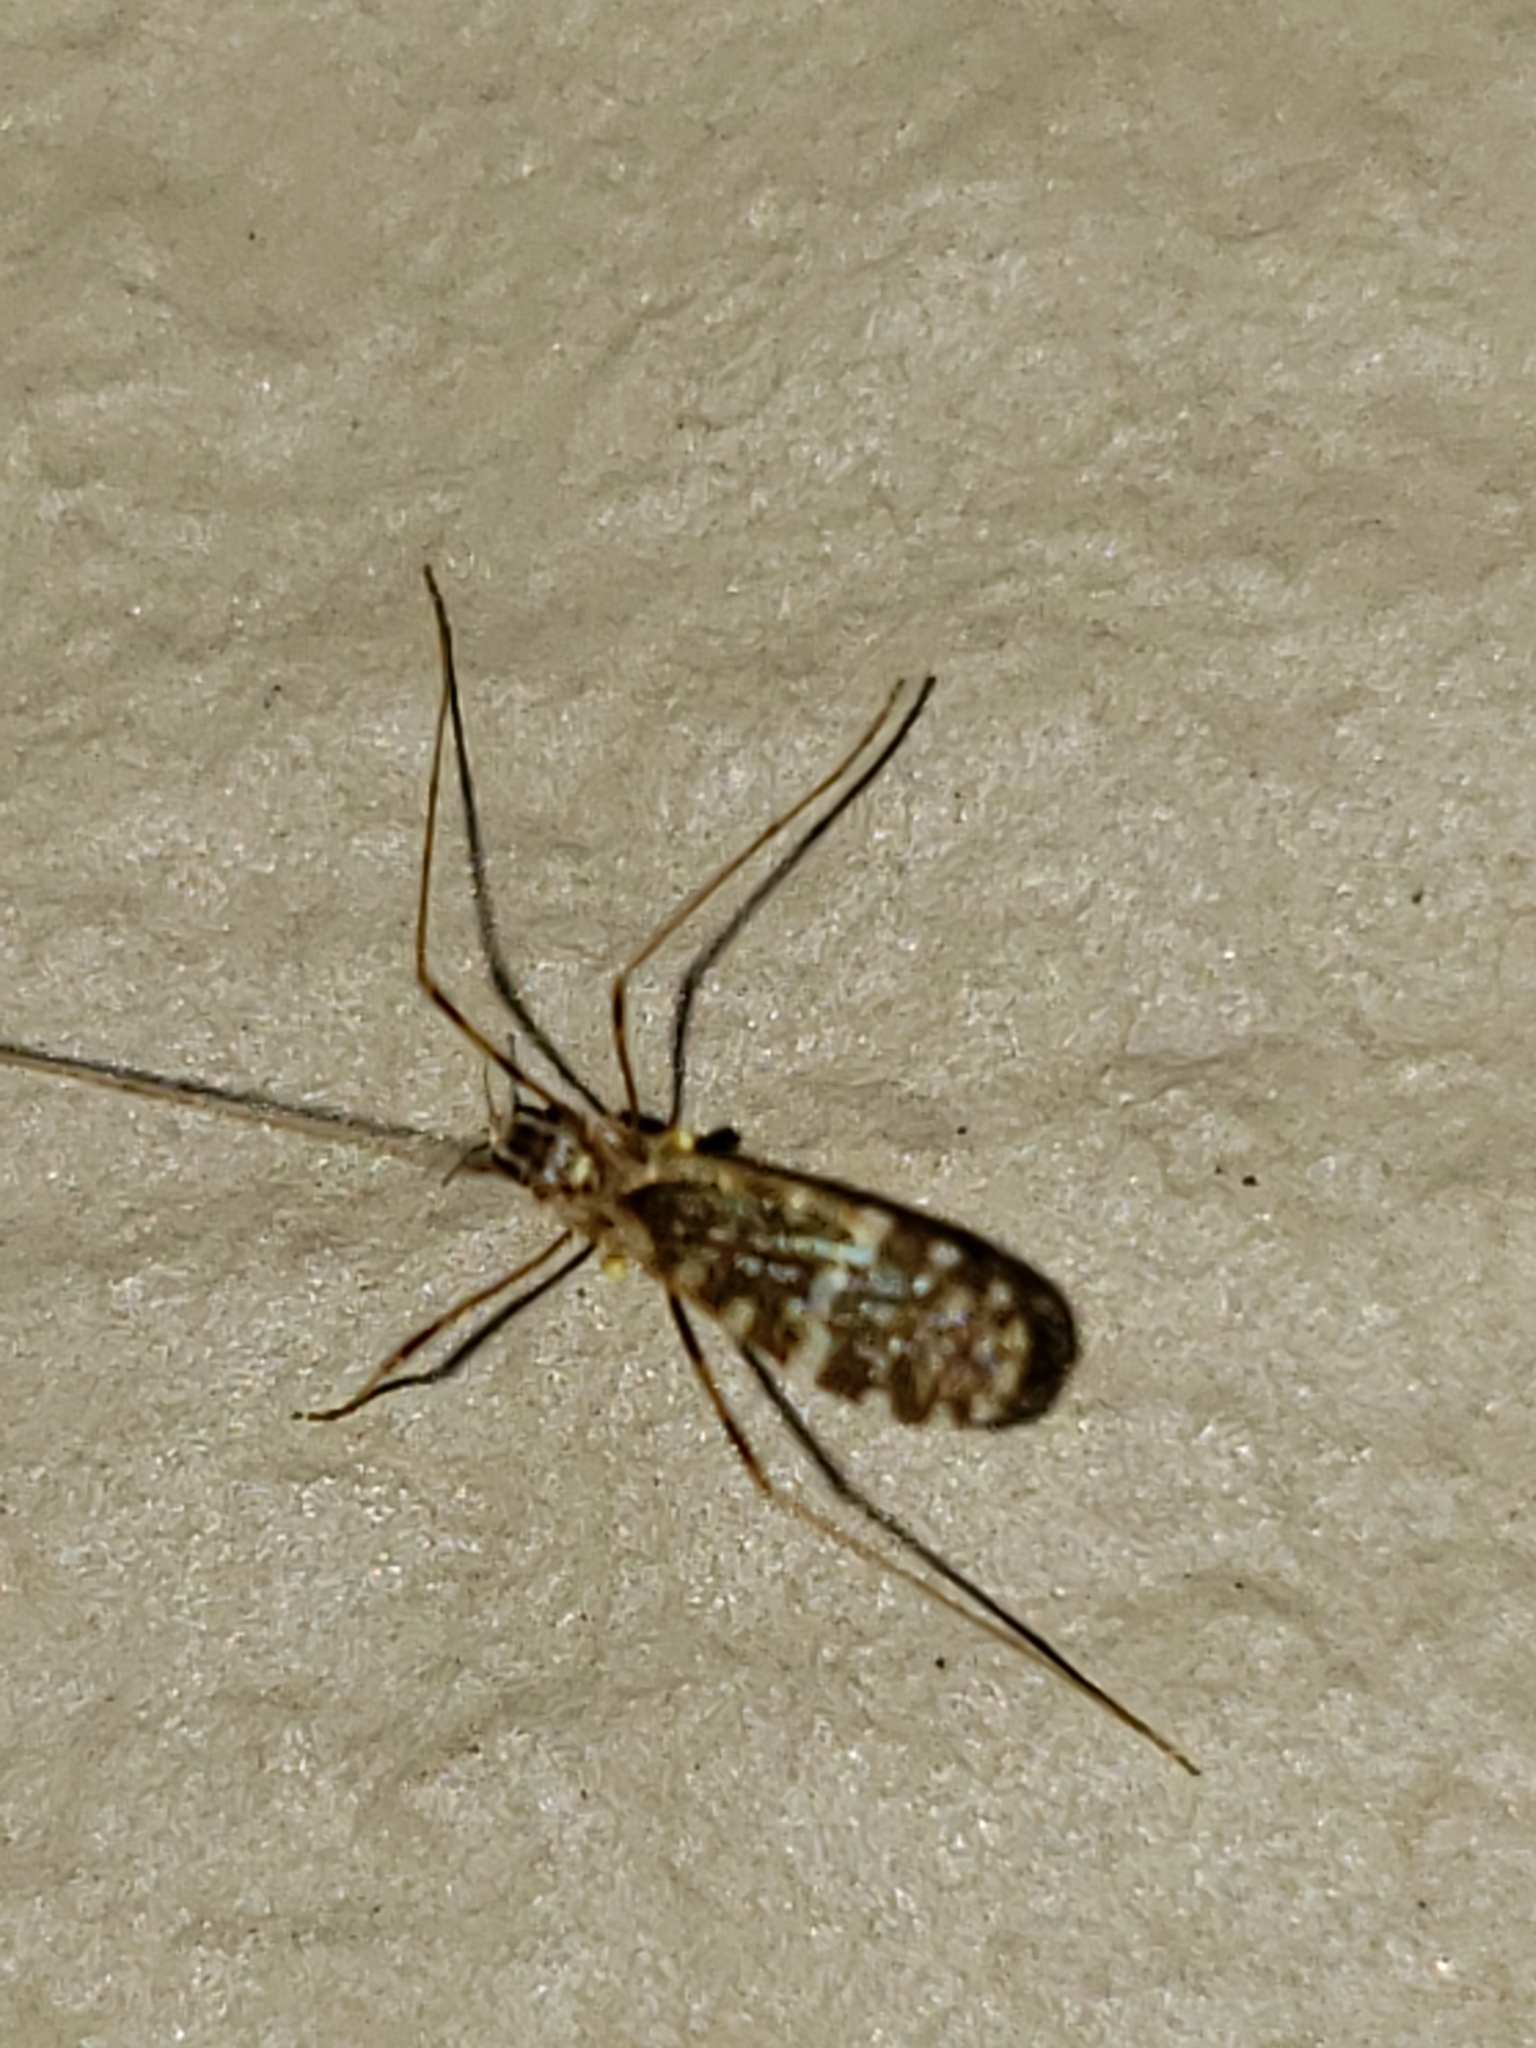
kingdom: Animalia
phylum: Arthropoda
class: Insecta
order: Diptera
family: Limoniidae
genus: Erioptera
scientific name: Erioptera caliptera
